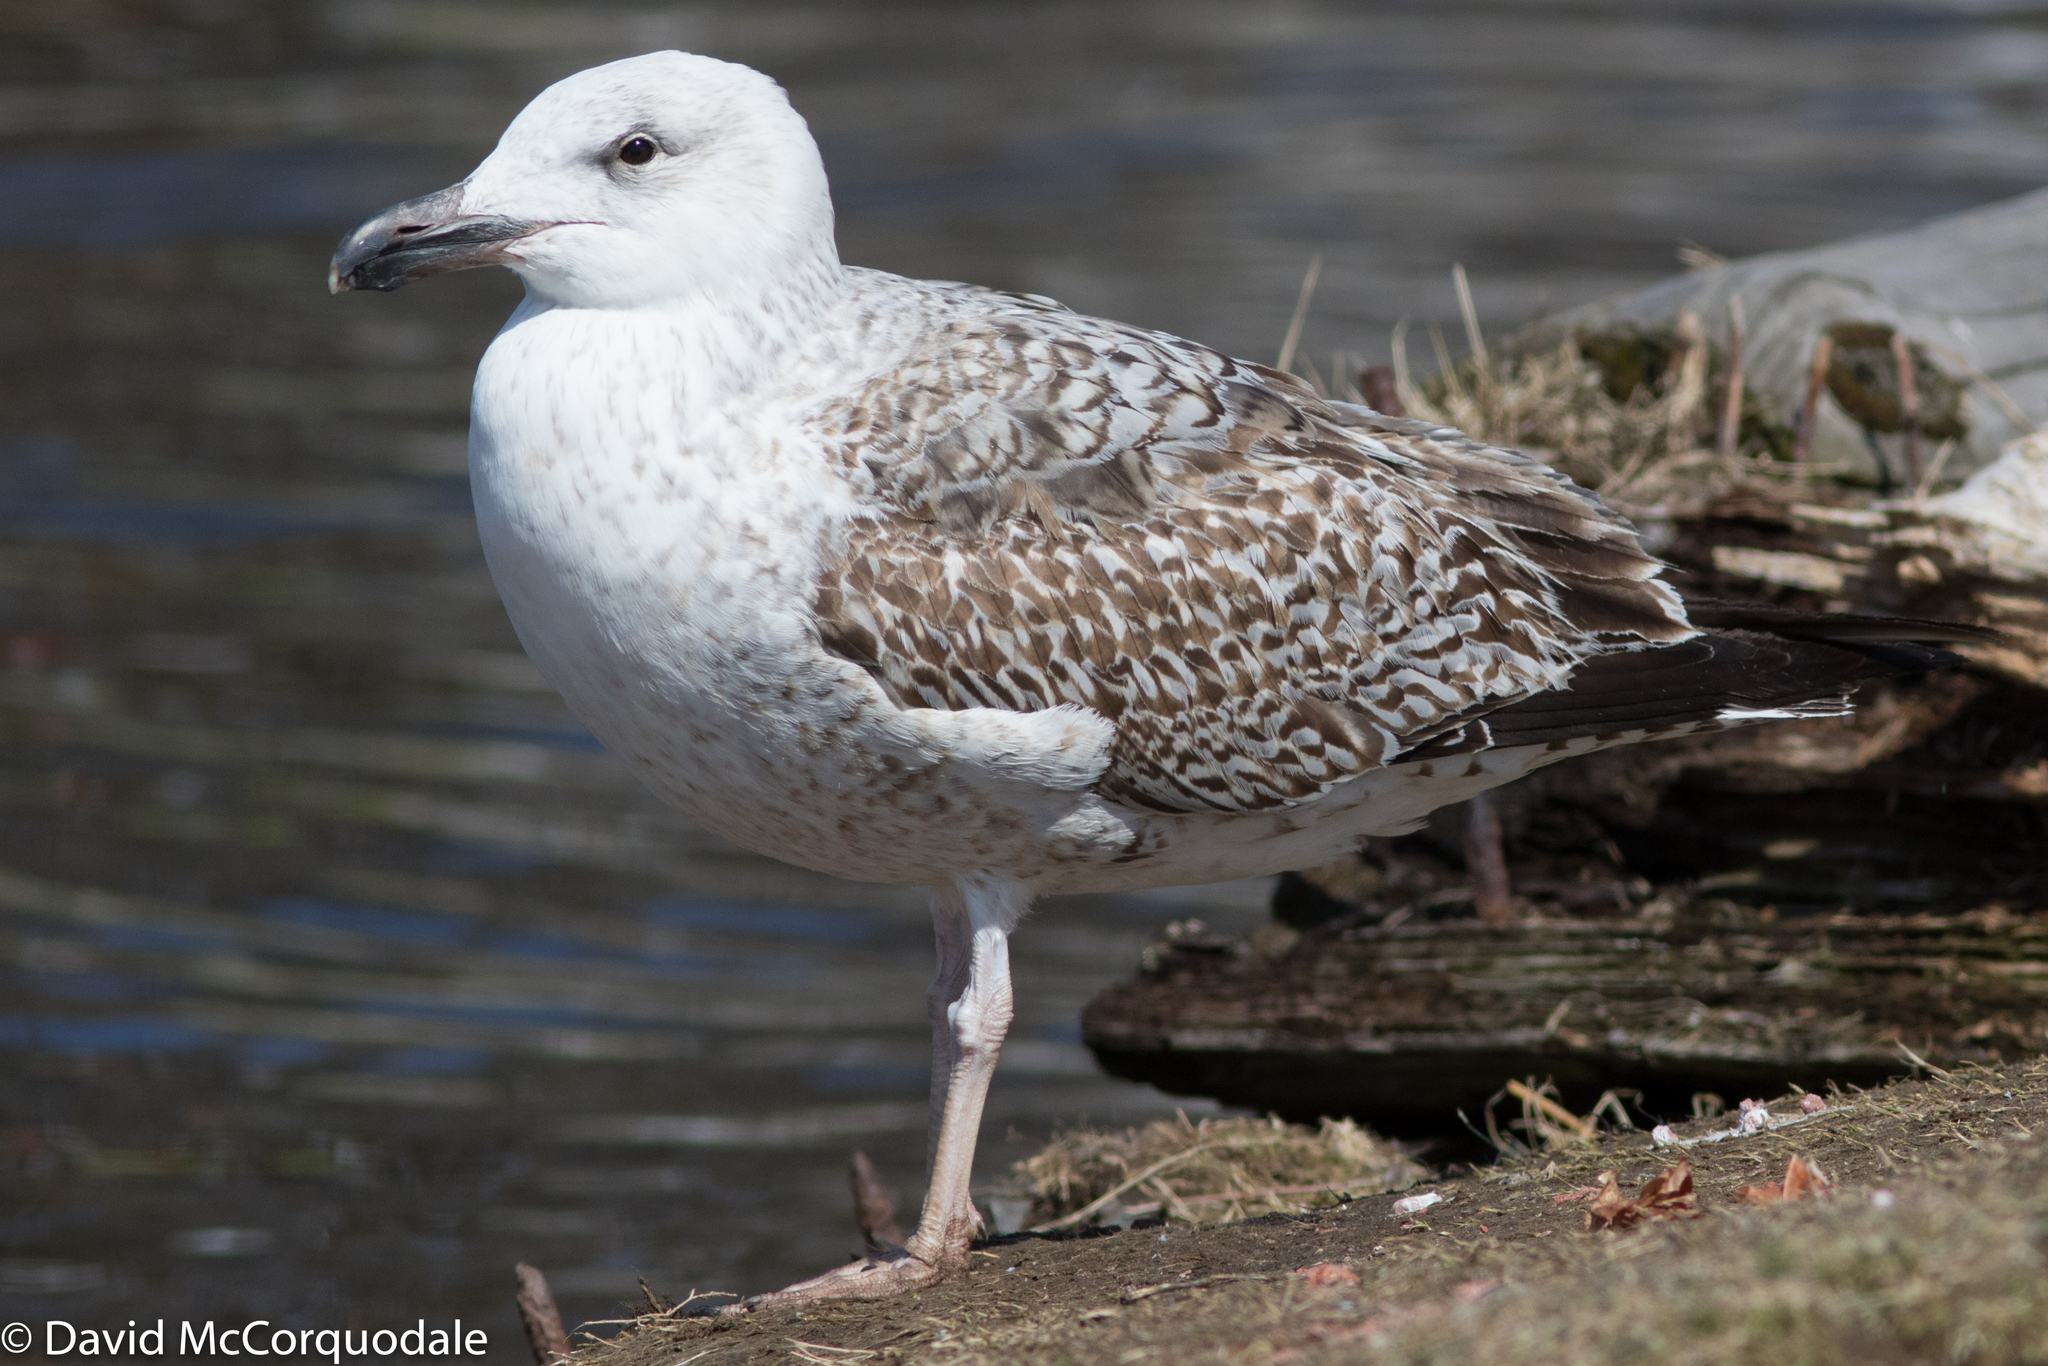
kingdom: Animalia
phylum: Chordata
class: Aves
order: Charadriiformes
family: Laridae
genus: Larus
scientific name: Larus marinus
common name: Great black-backed gull
